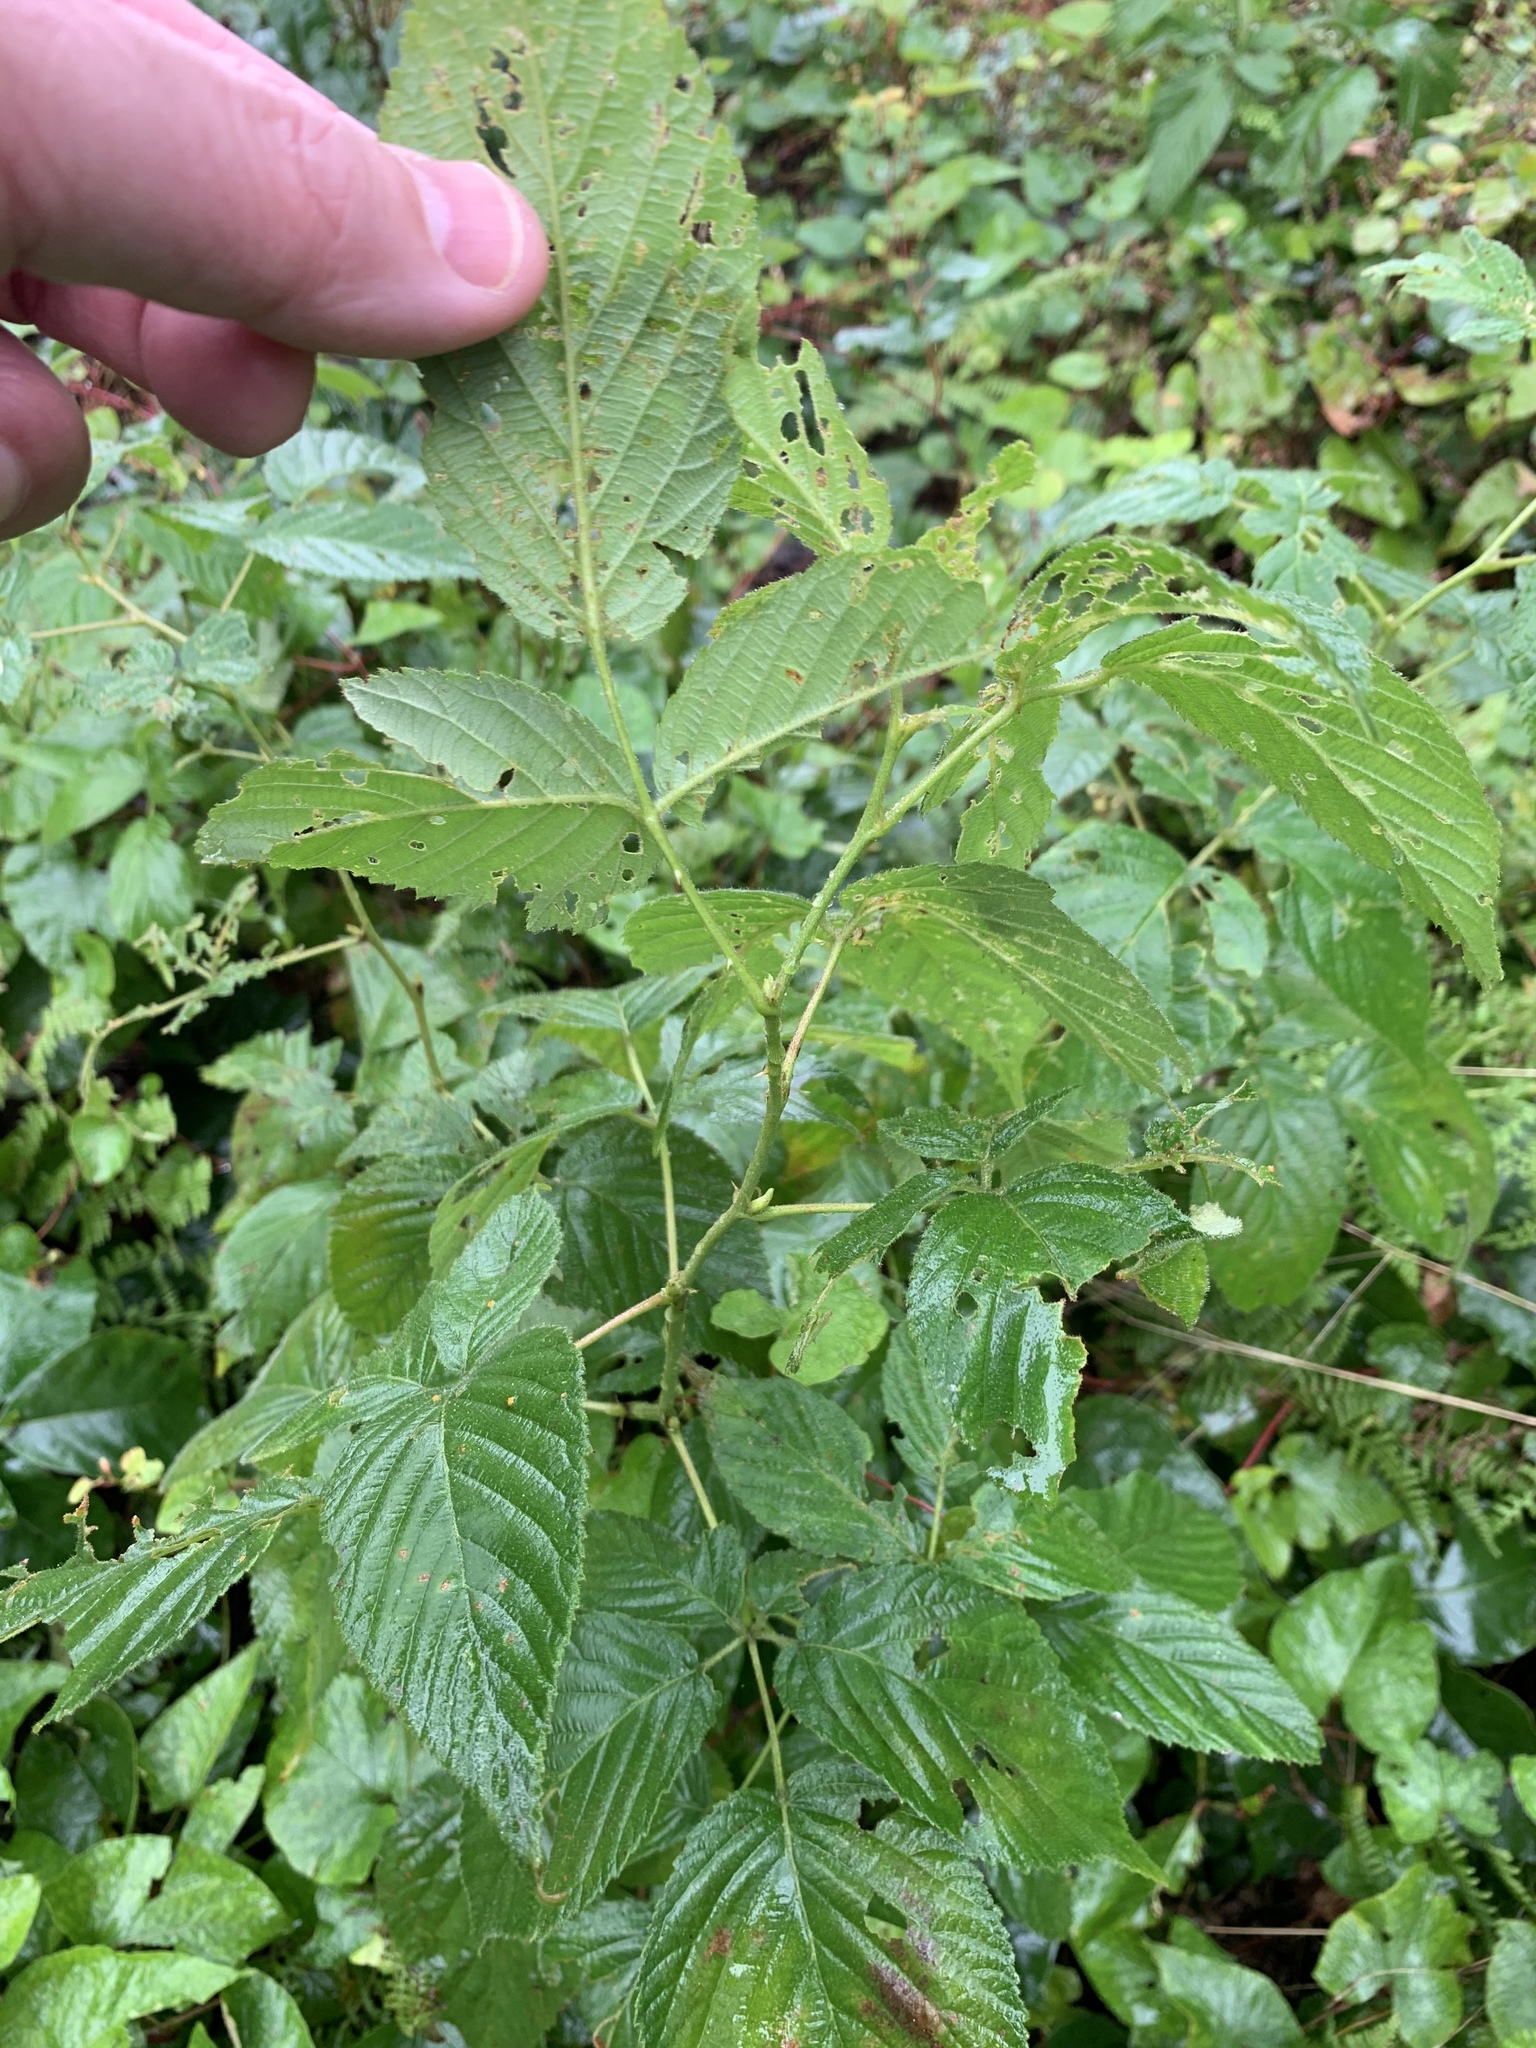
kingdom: Plantae
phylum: Tracheophyta
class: Magnoliopsida
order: Rosales
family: Rosaceae
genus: Rubus
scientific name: Rubus pensilvanicus
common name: Pennsylvania blackberry
